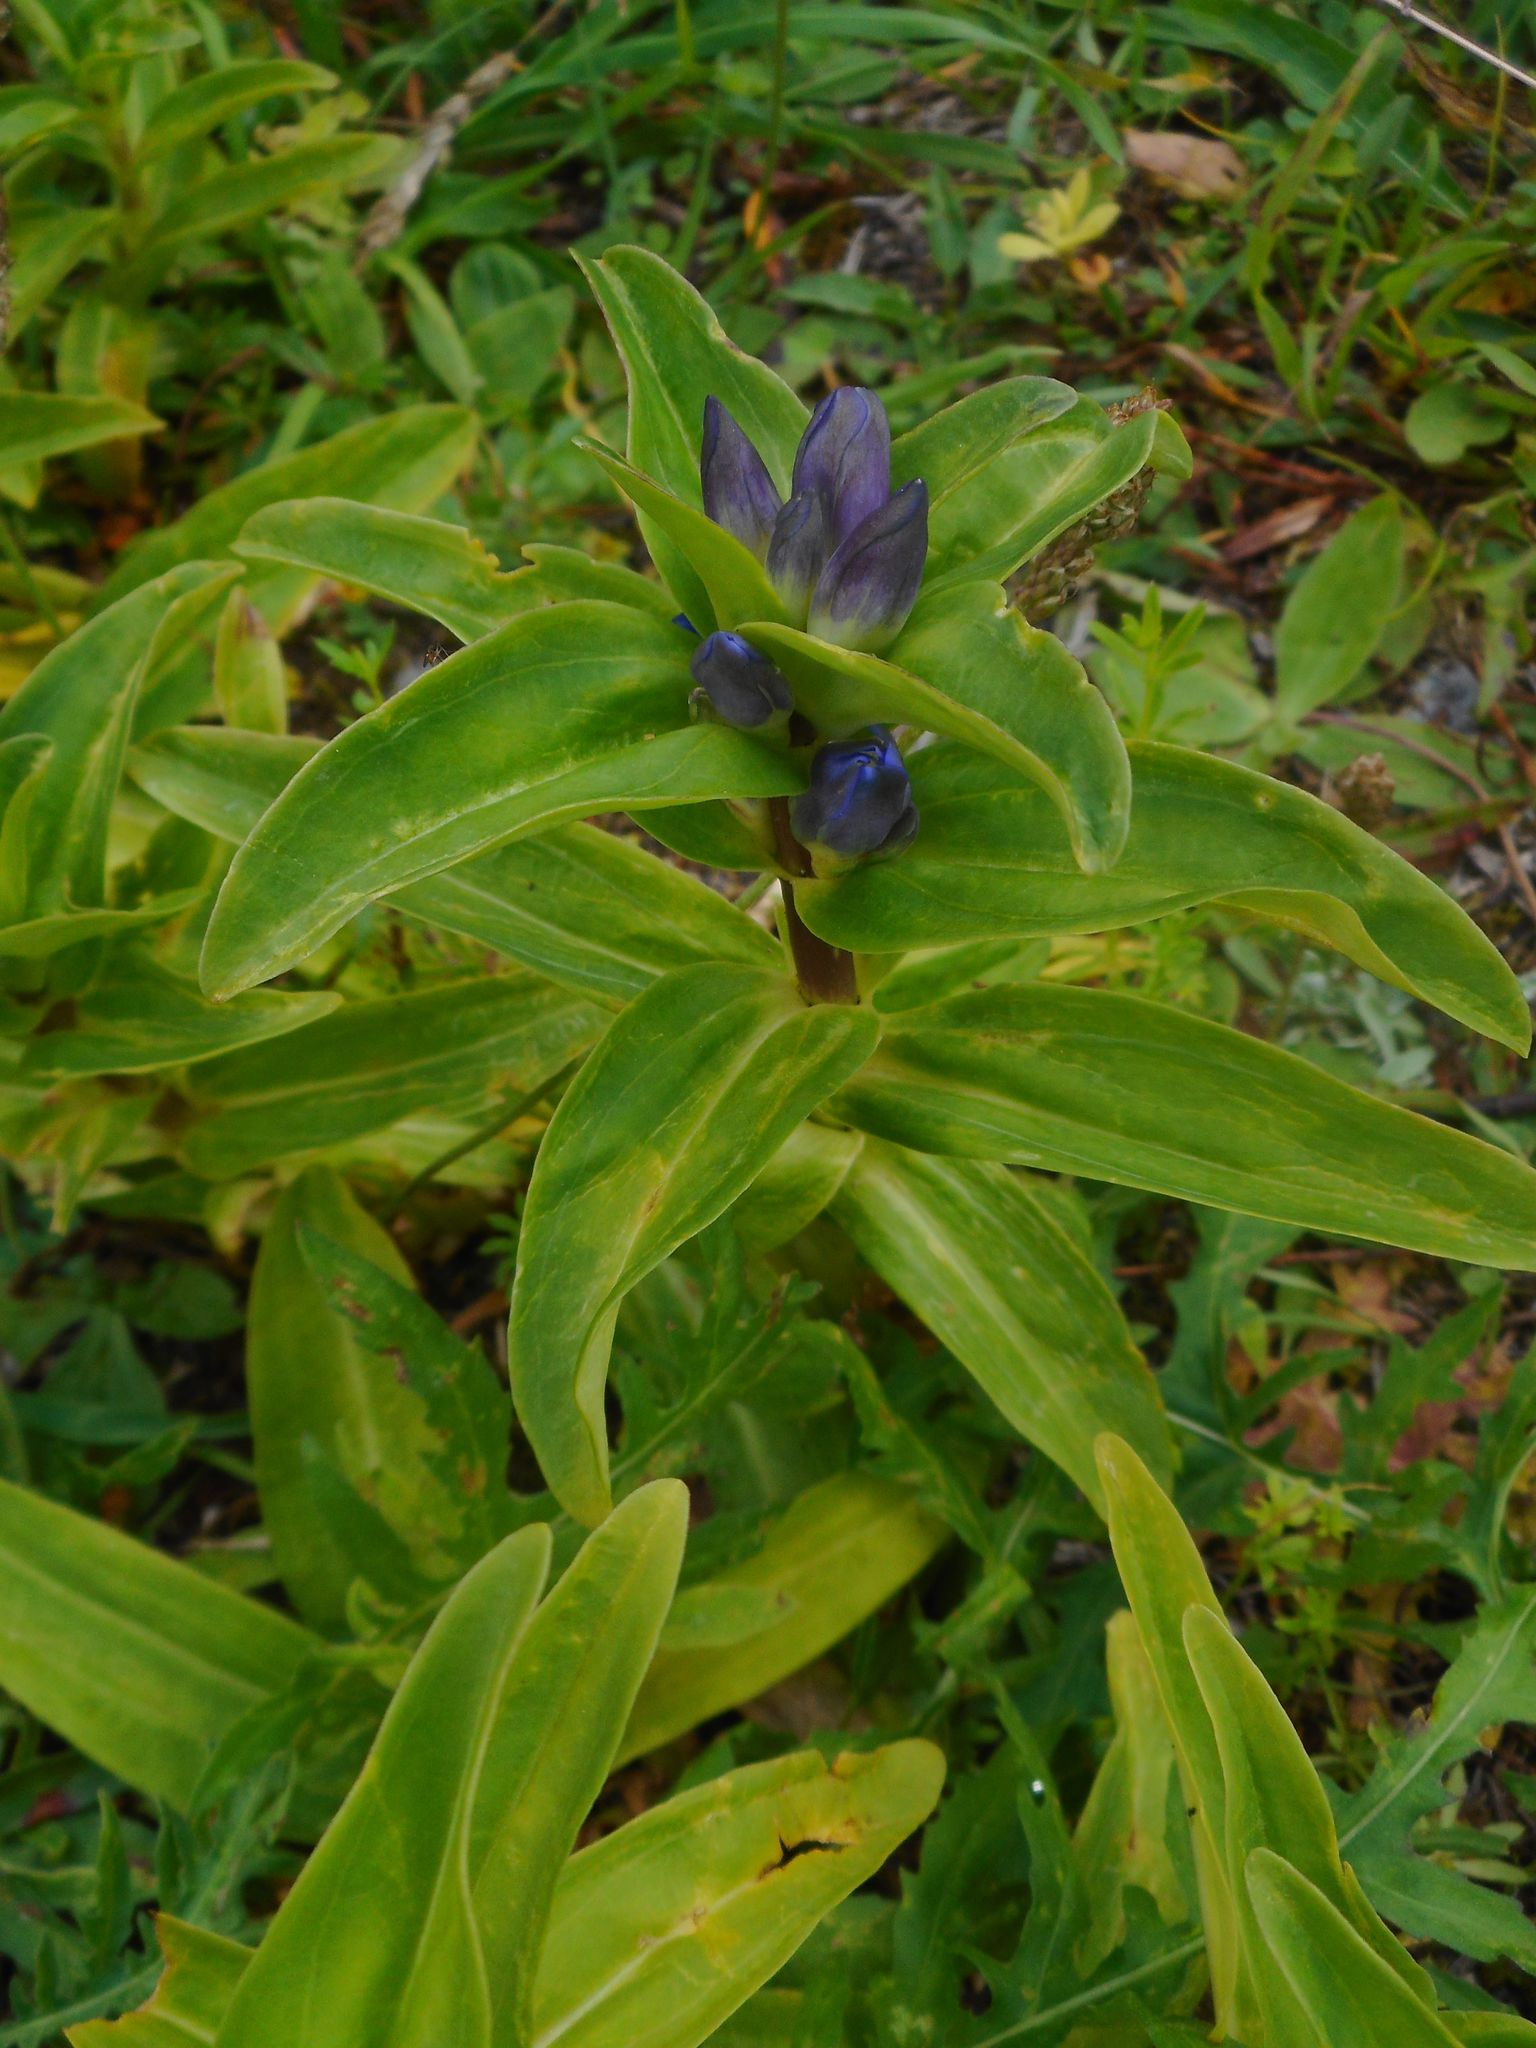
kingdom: Plantae
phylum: Tracheophyta
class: Magnoliopsida
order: Gentianales
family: Gentianaceae
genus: Gentiana
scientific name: Gentiana cruciata
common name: Cross gentian
